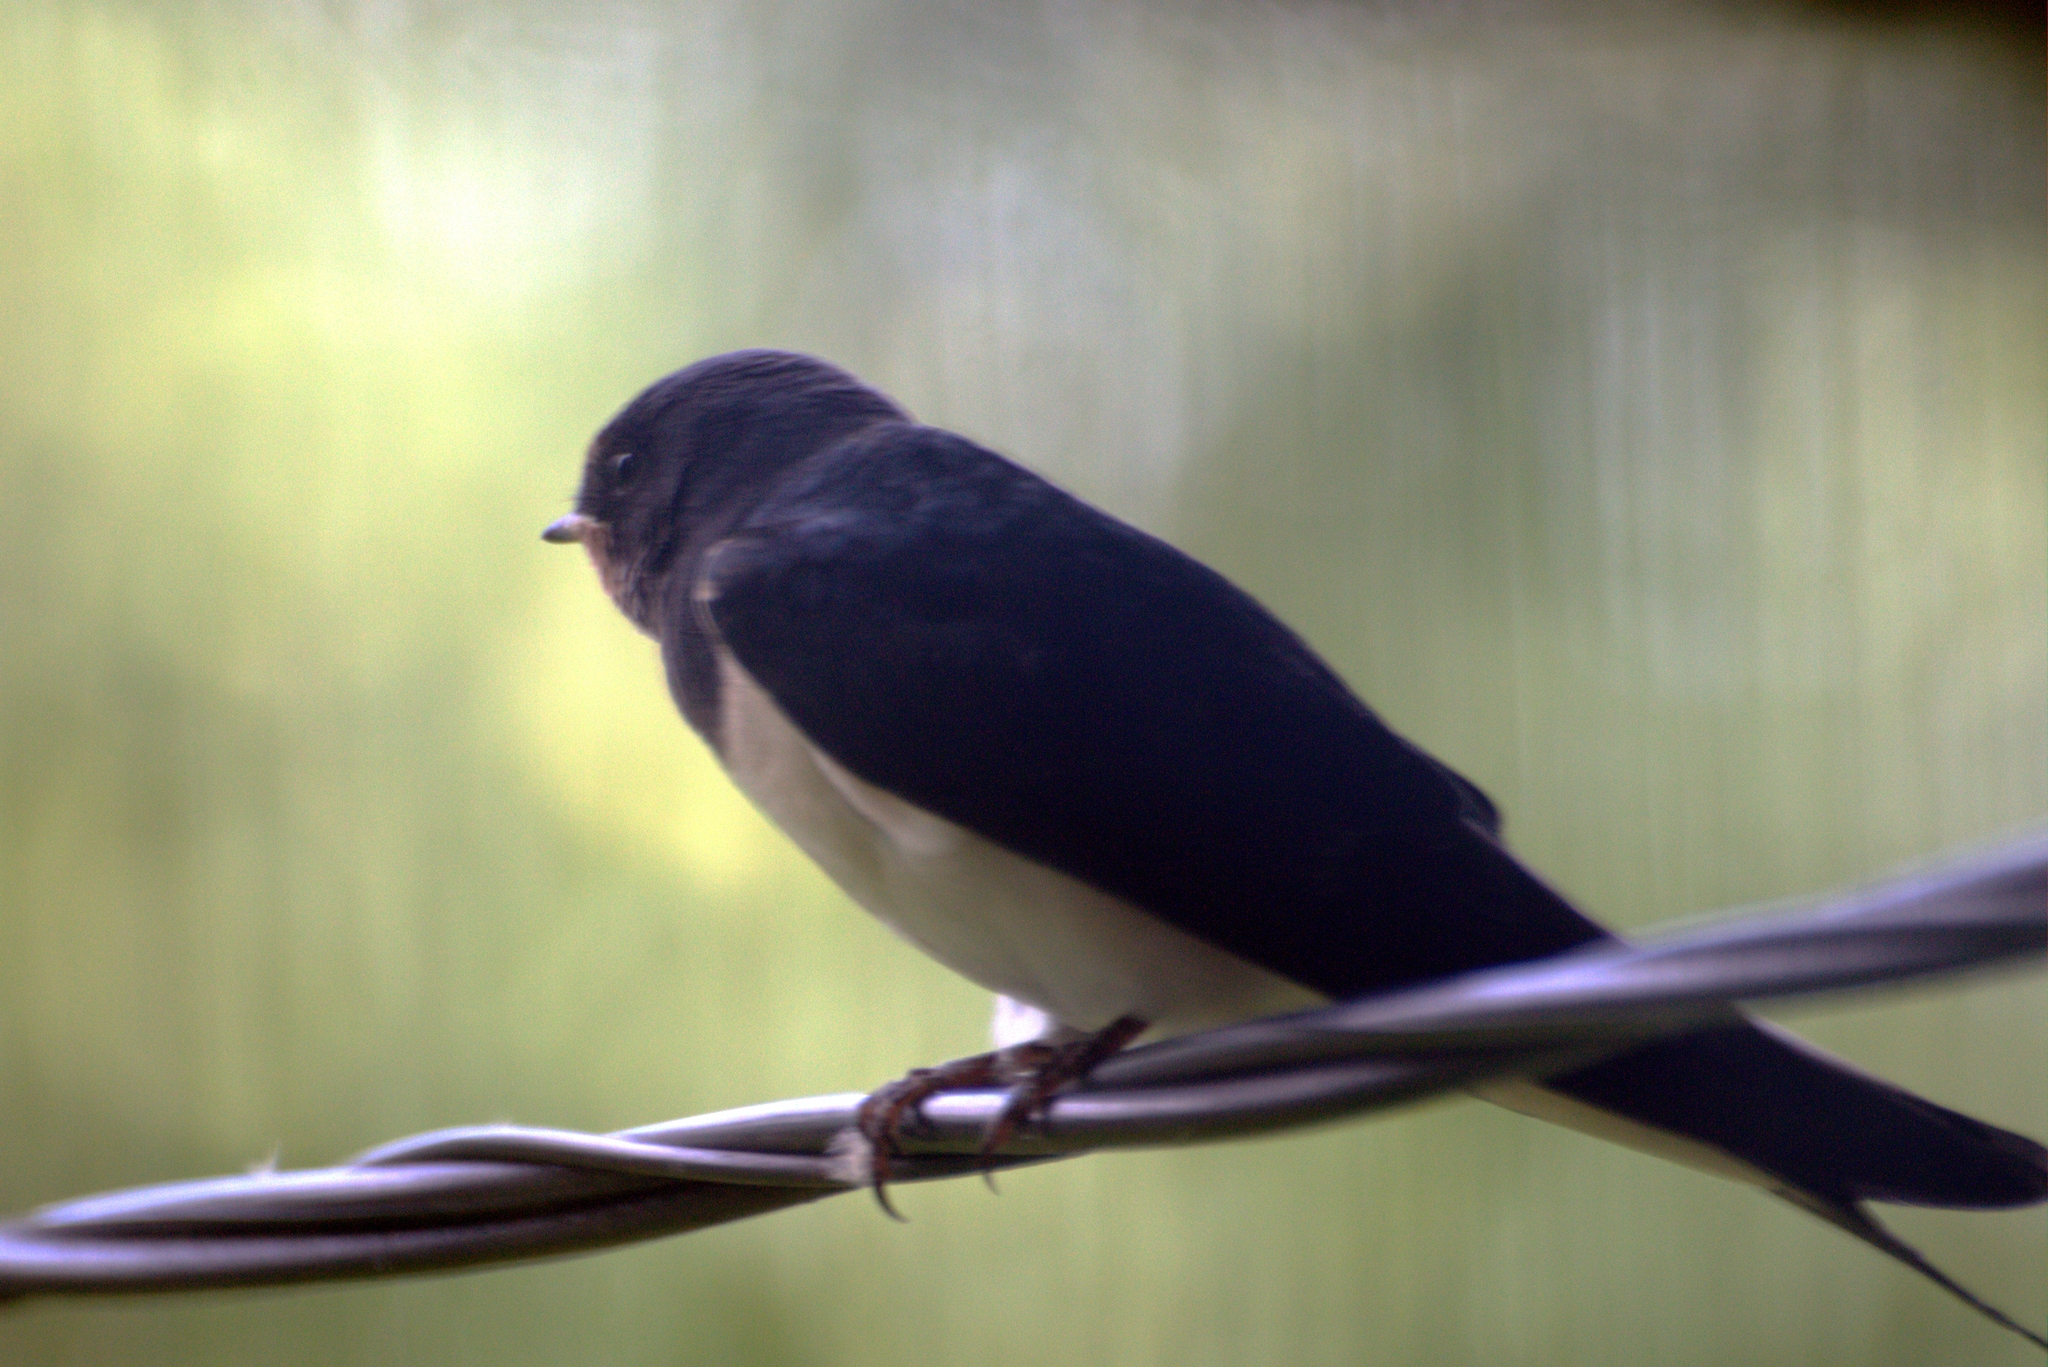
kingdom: Animalia
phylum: Chordata
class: Aves
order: Passeriformes
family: Hirundinidae
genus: Hirundo
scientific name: Hirundo rustica
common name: Barn swallow
